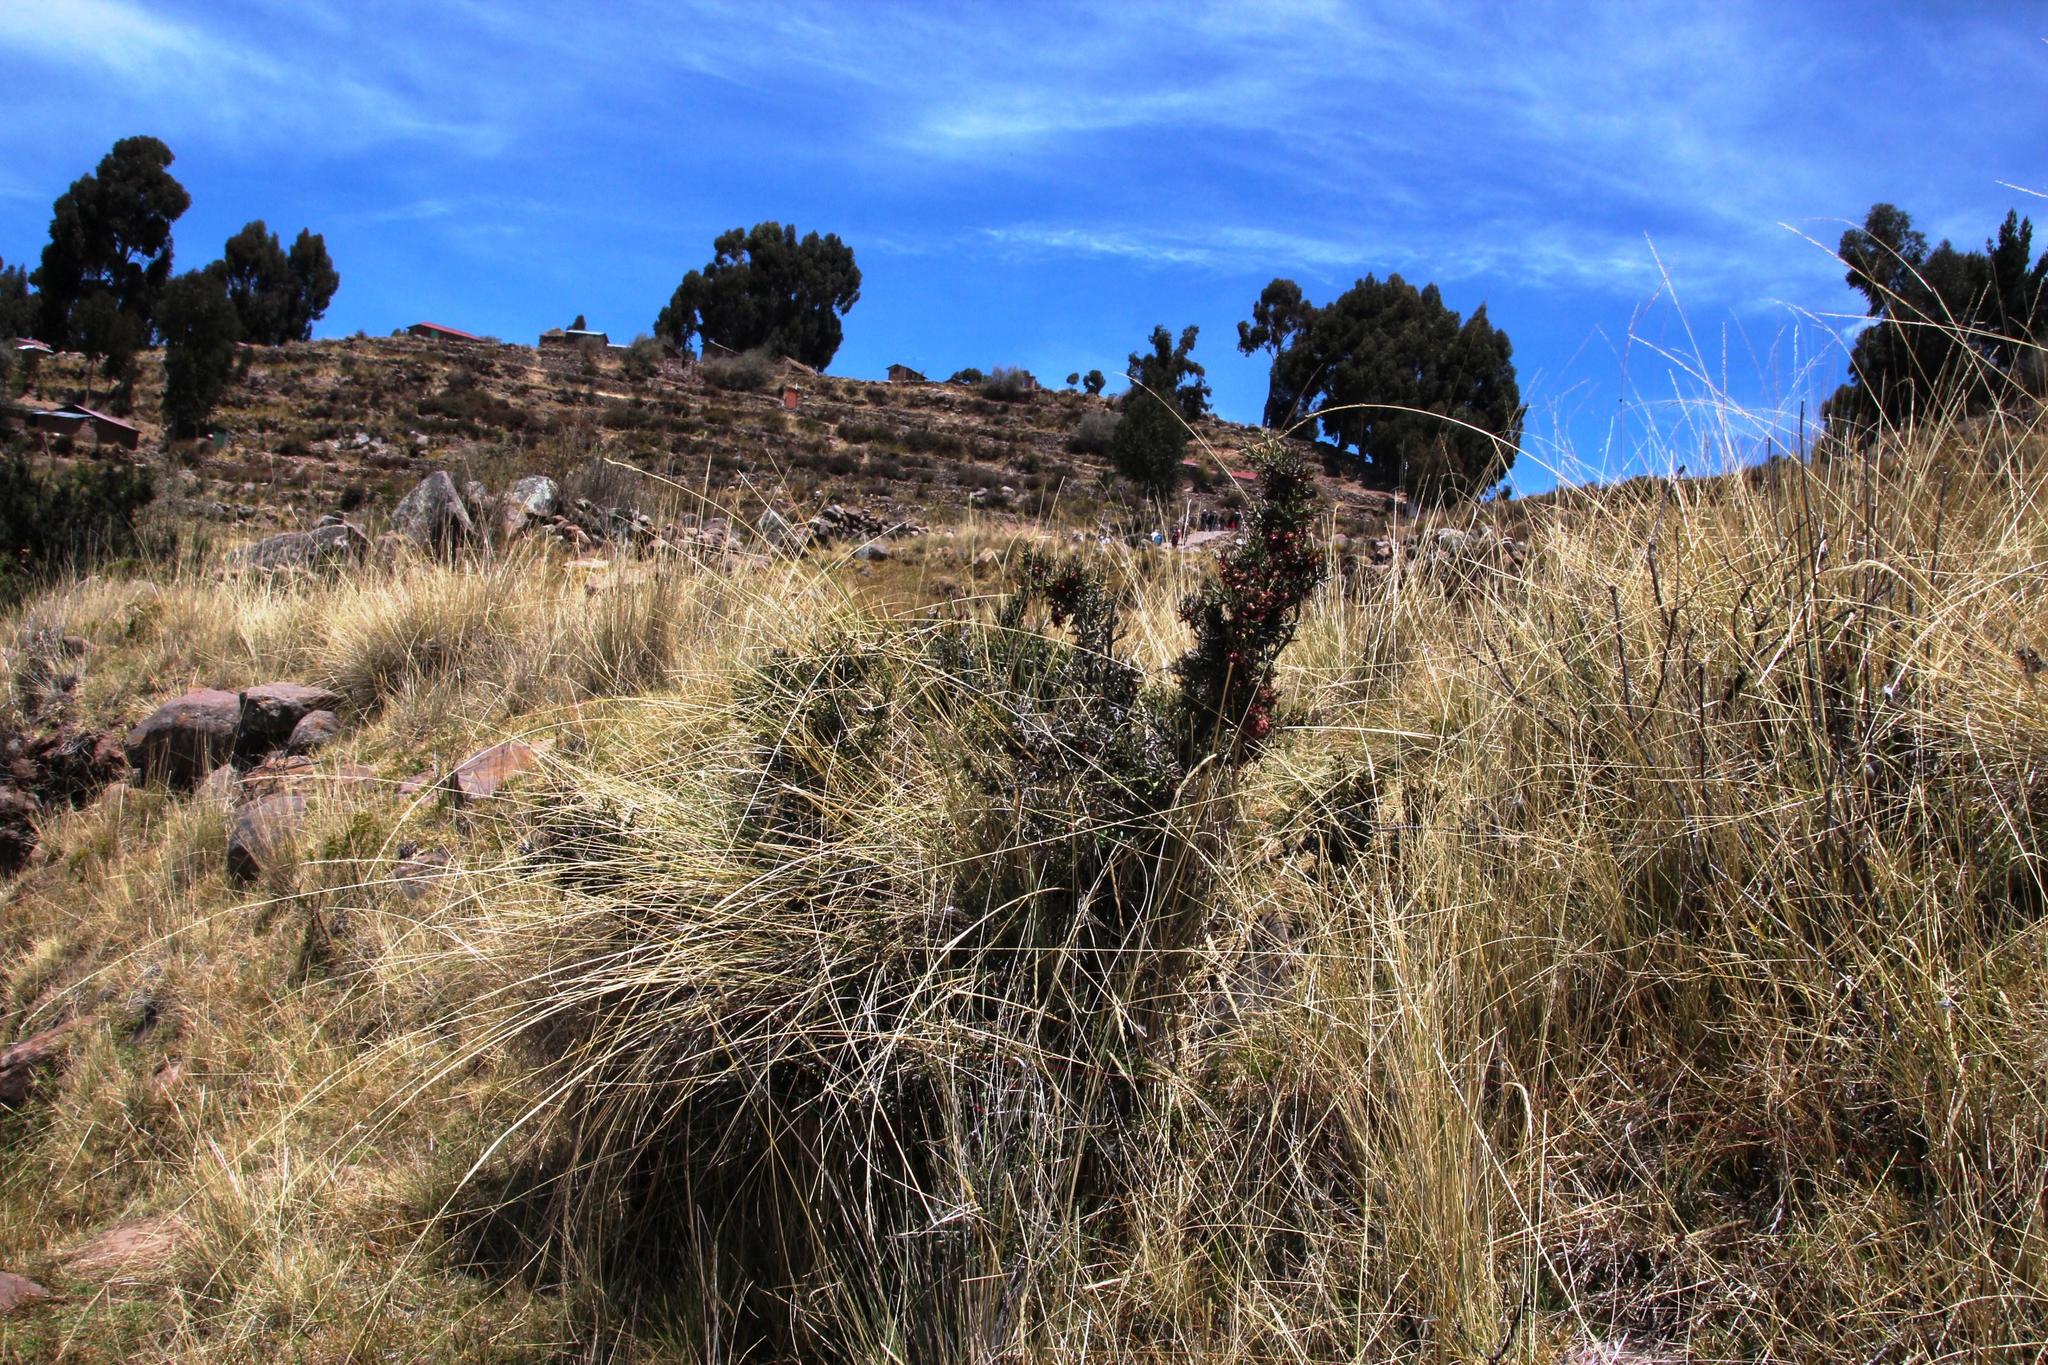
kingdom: Plantae
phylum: Tracheophyta
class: Magnoliopsida
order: Rosales
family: Rhamnaceae
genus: Colletia
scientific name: Colletia spinosissima
